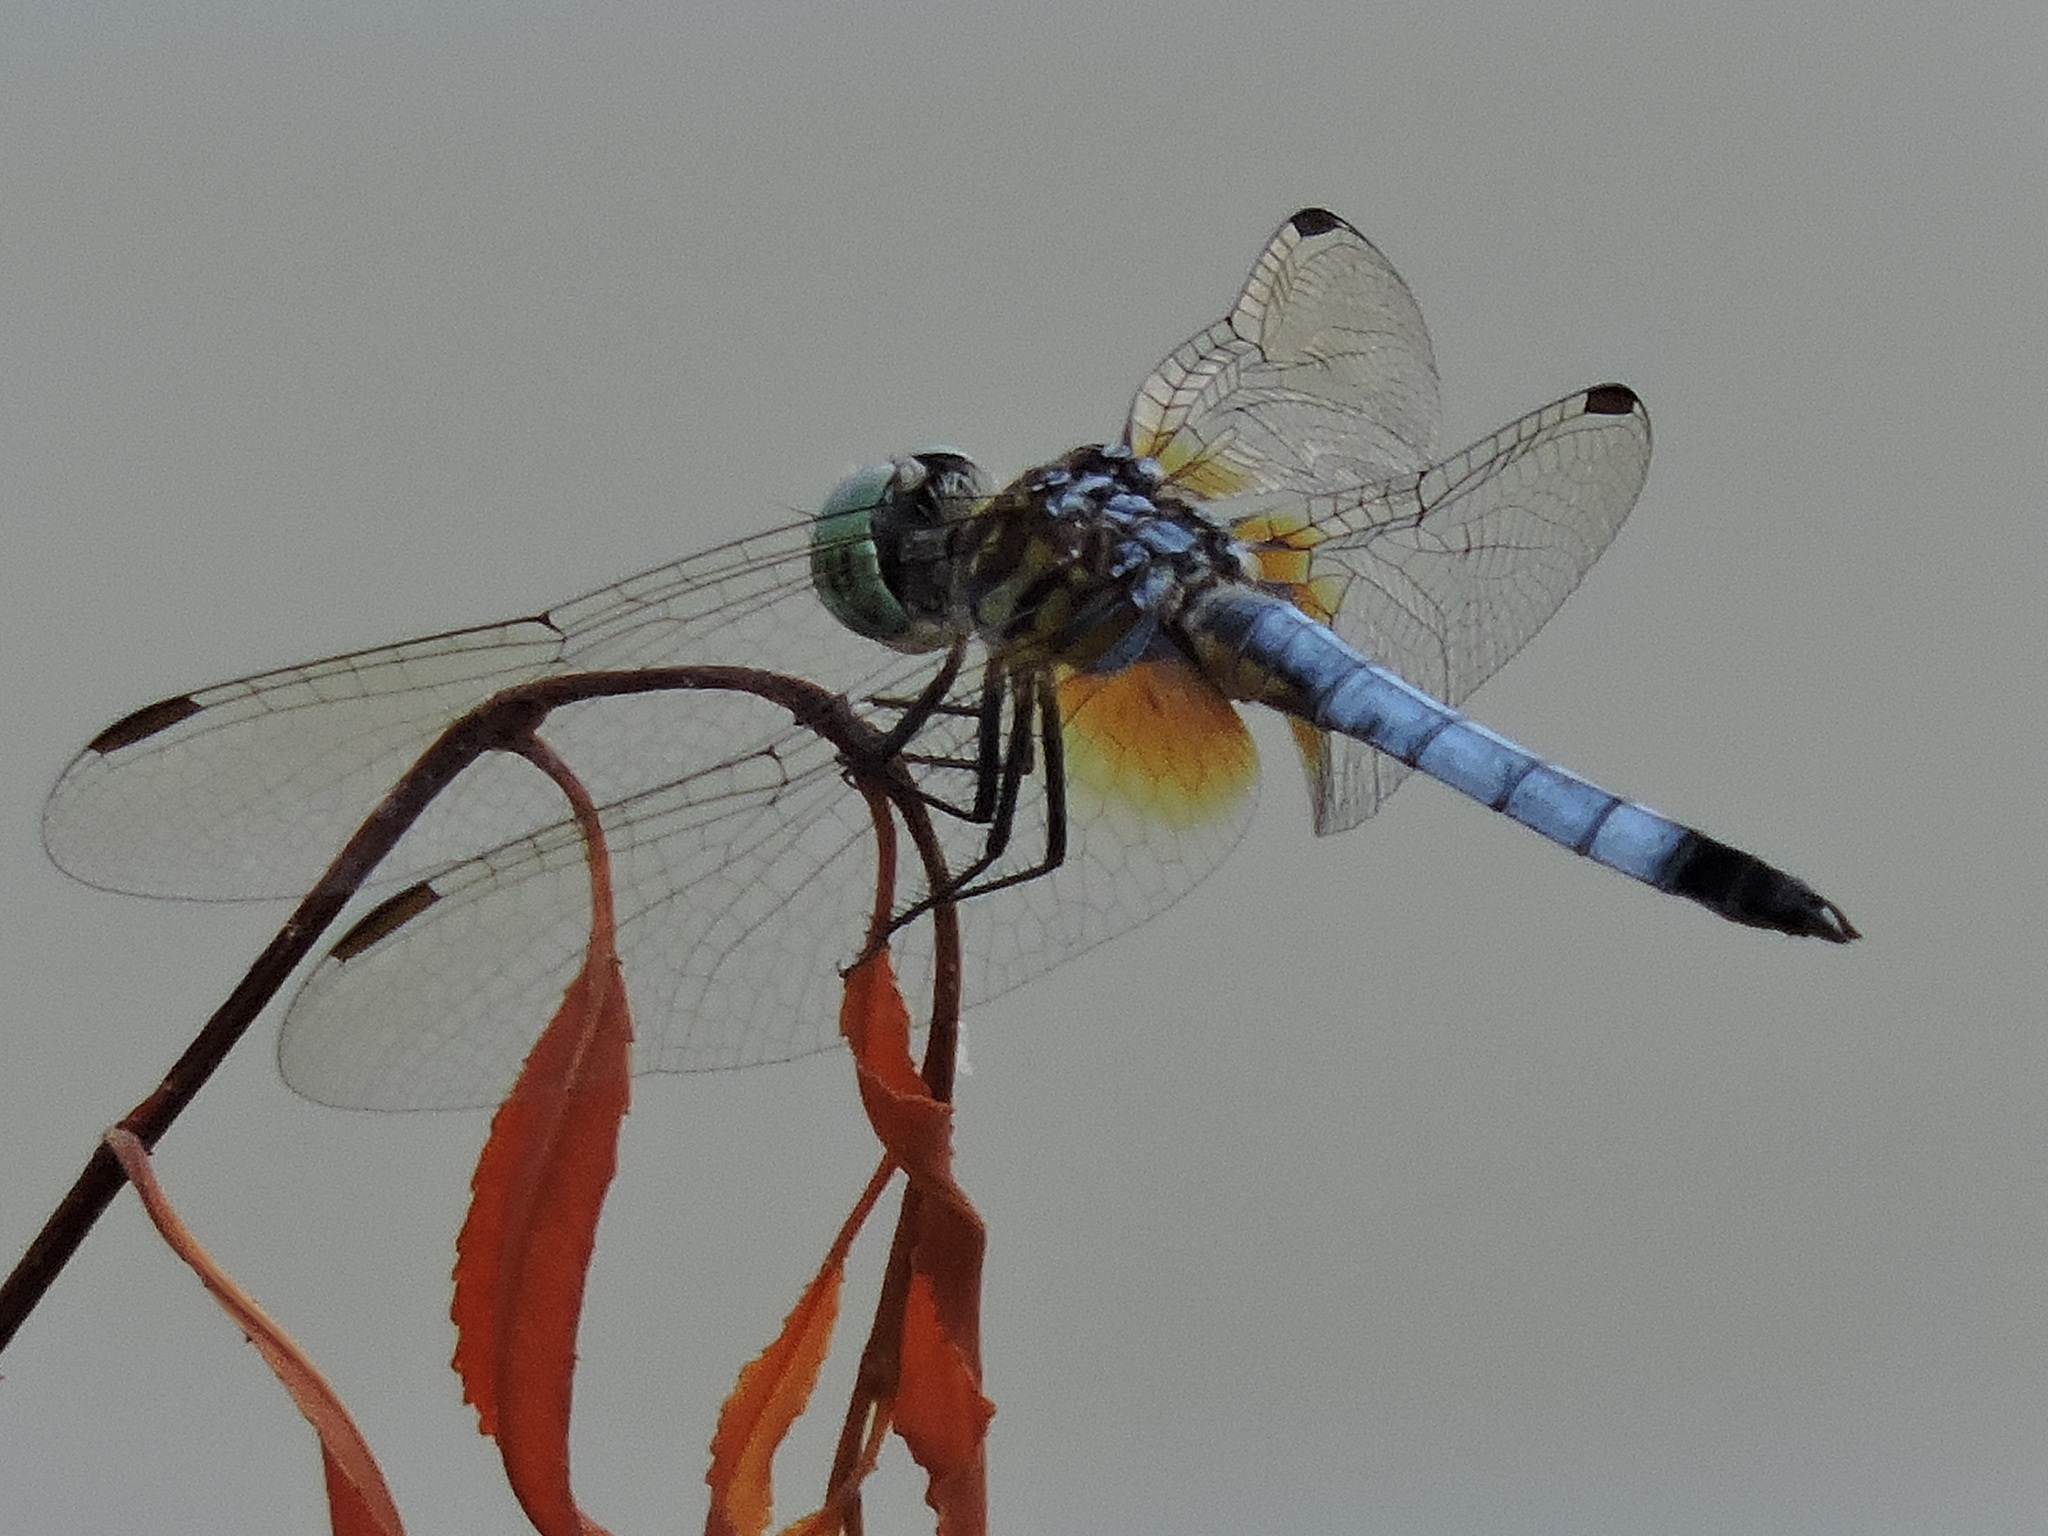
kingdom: Animalia
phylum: Arthropoda
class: Insecta
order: Odonata
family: Libellulidae
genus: Pachydiplax
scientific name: Pachydiplax longipennis
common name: Blue dasher
